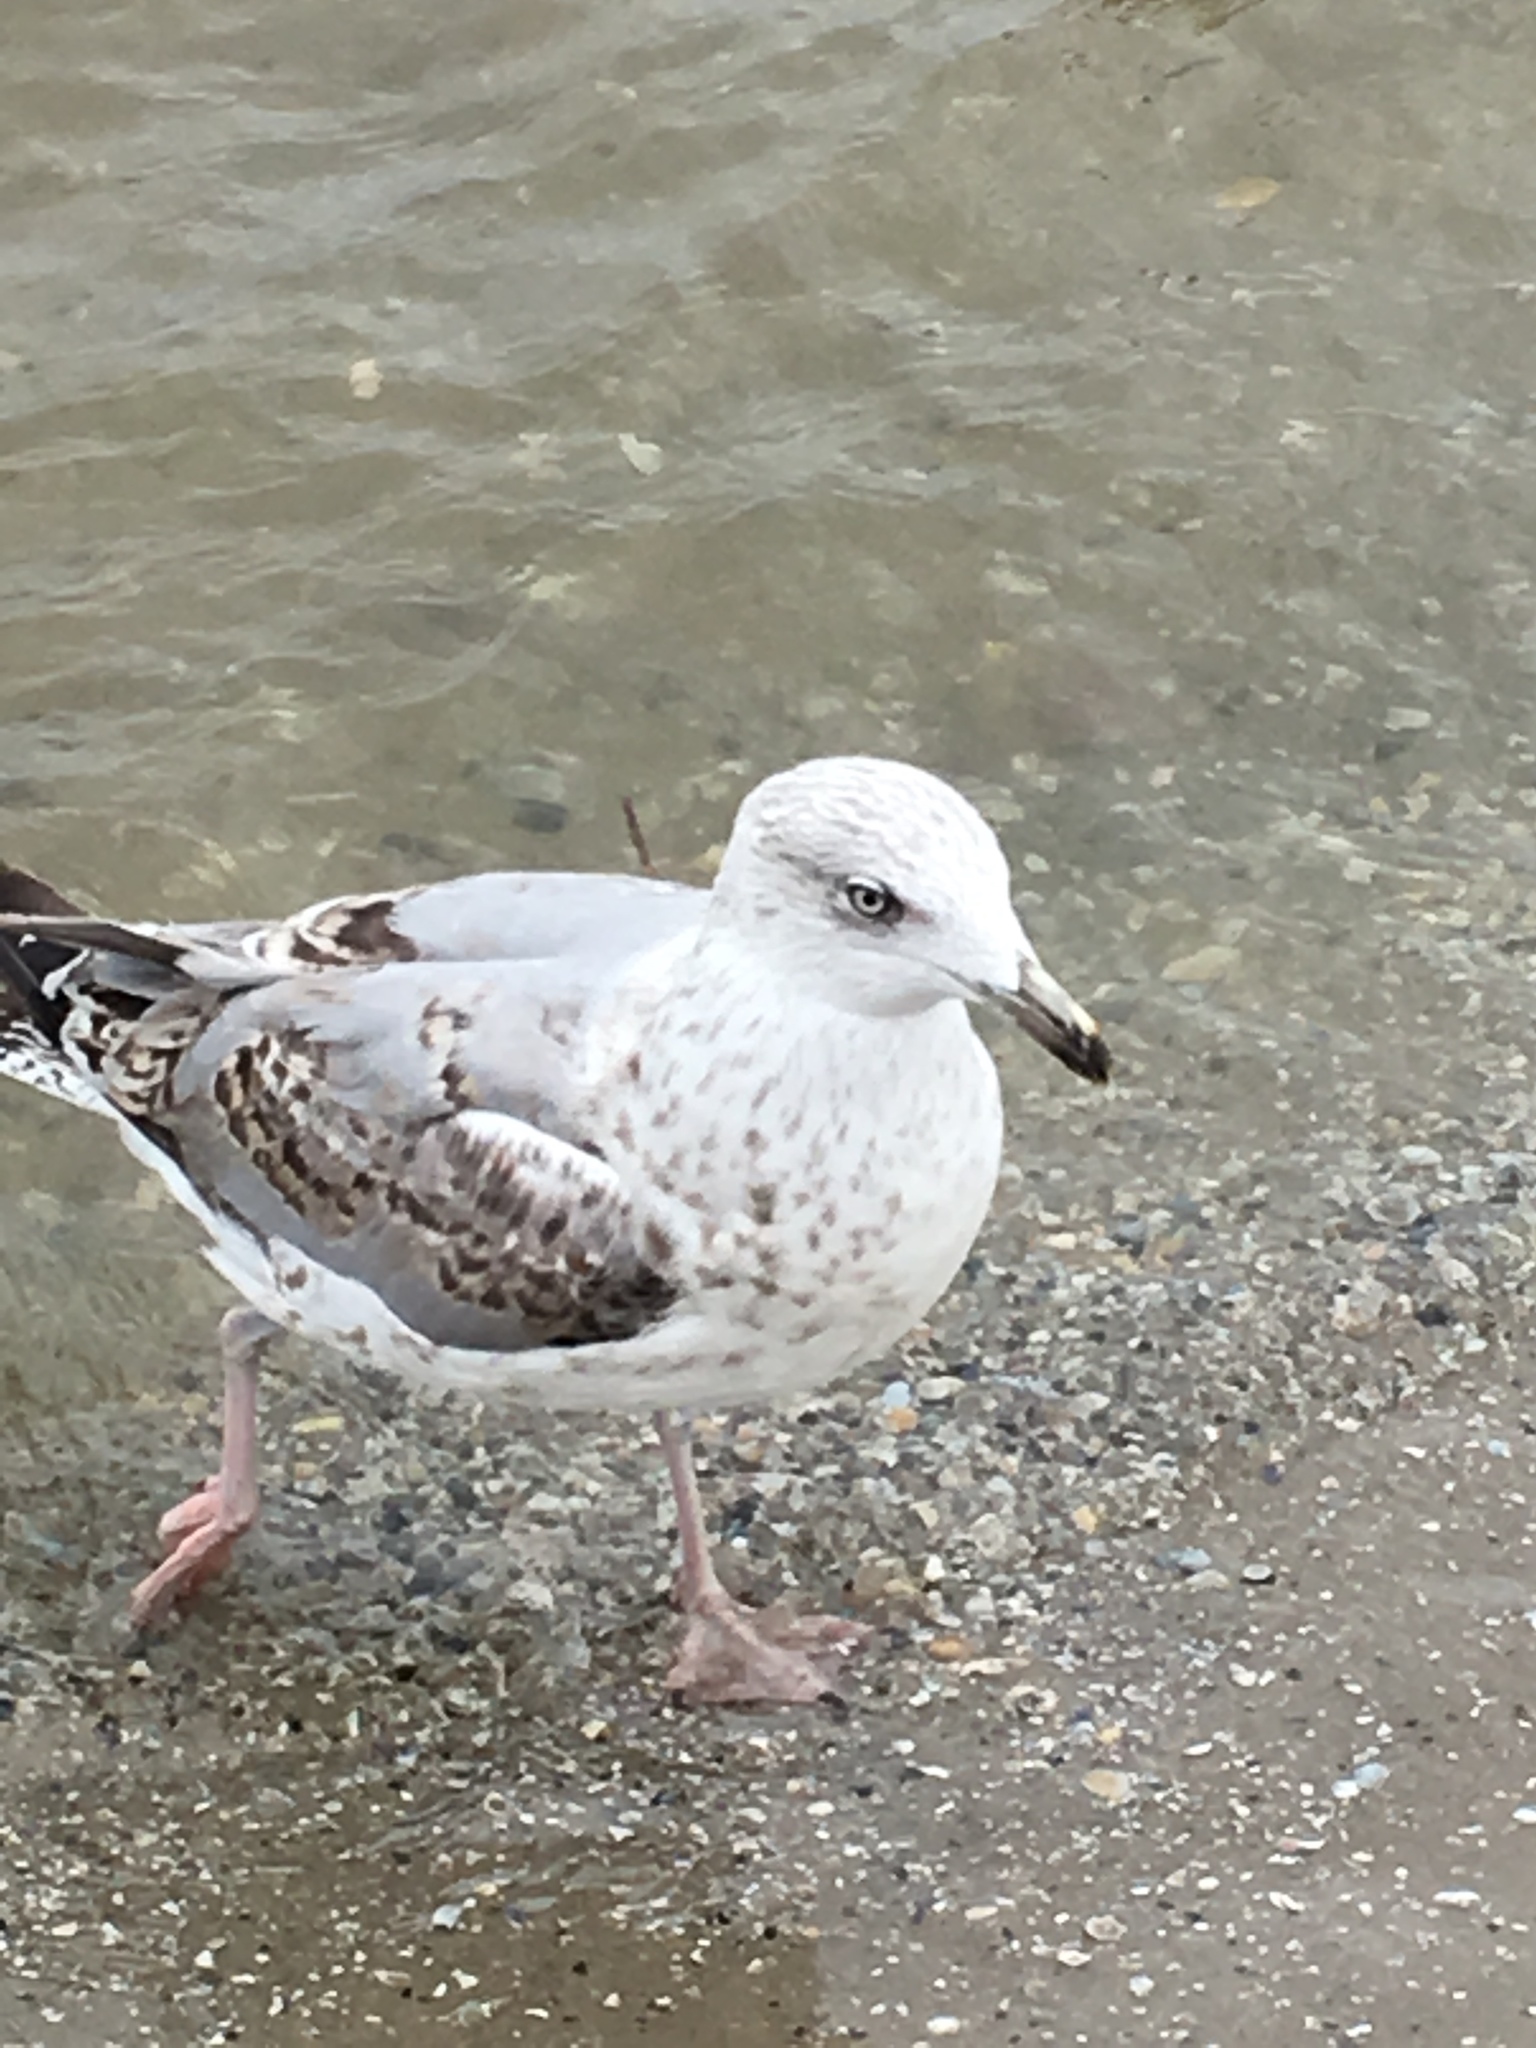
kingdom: Animalia
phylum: Chordata
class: Aves
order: Charadriiformes
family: Laridae
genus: Larus
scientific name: Larus argentatus
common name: Herring gull
